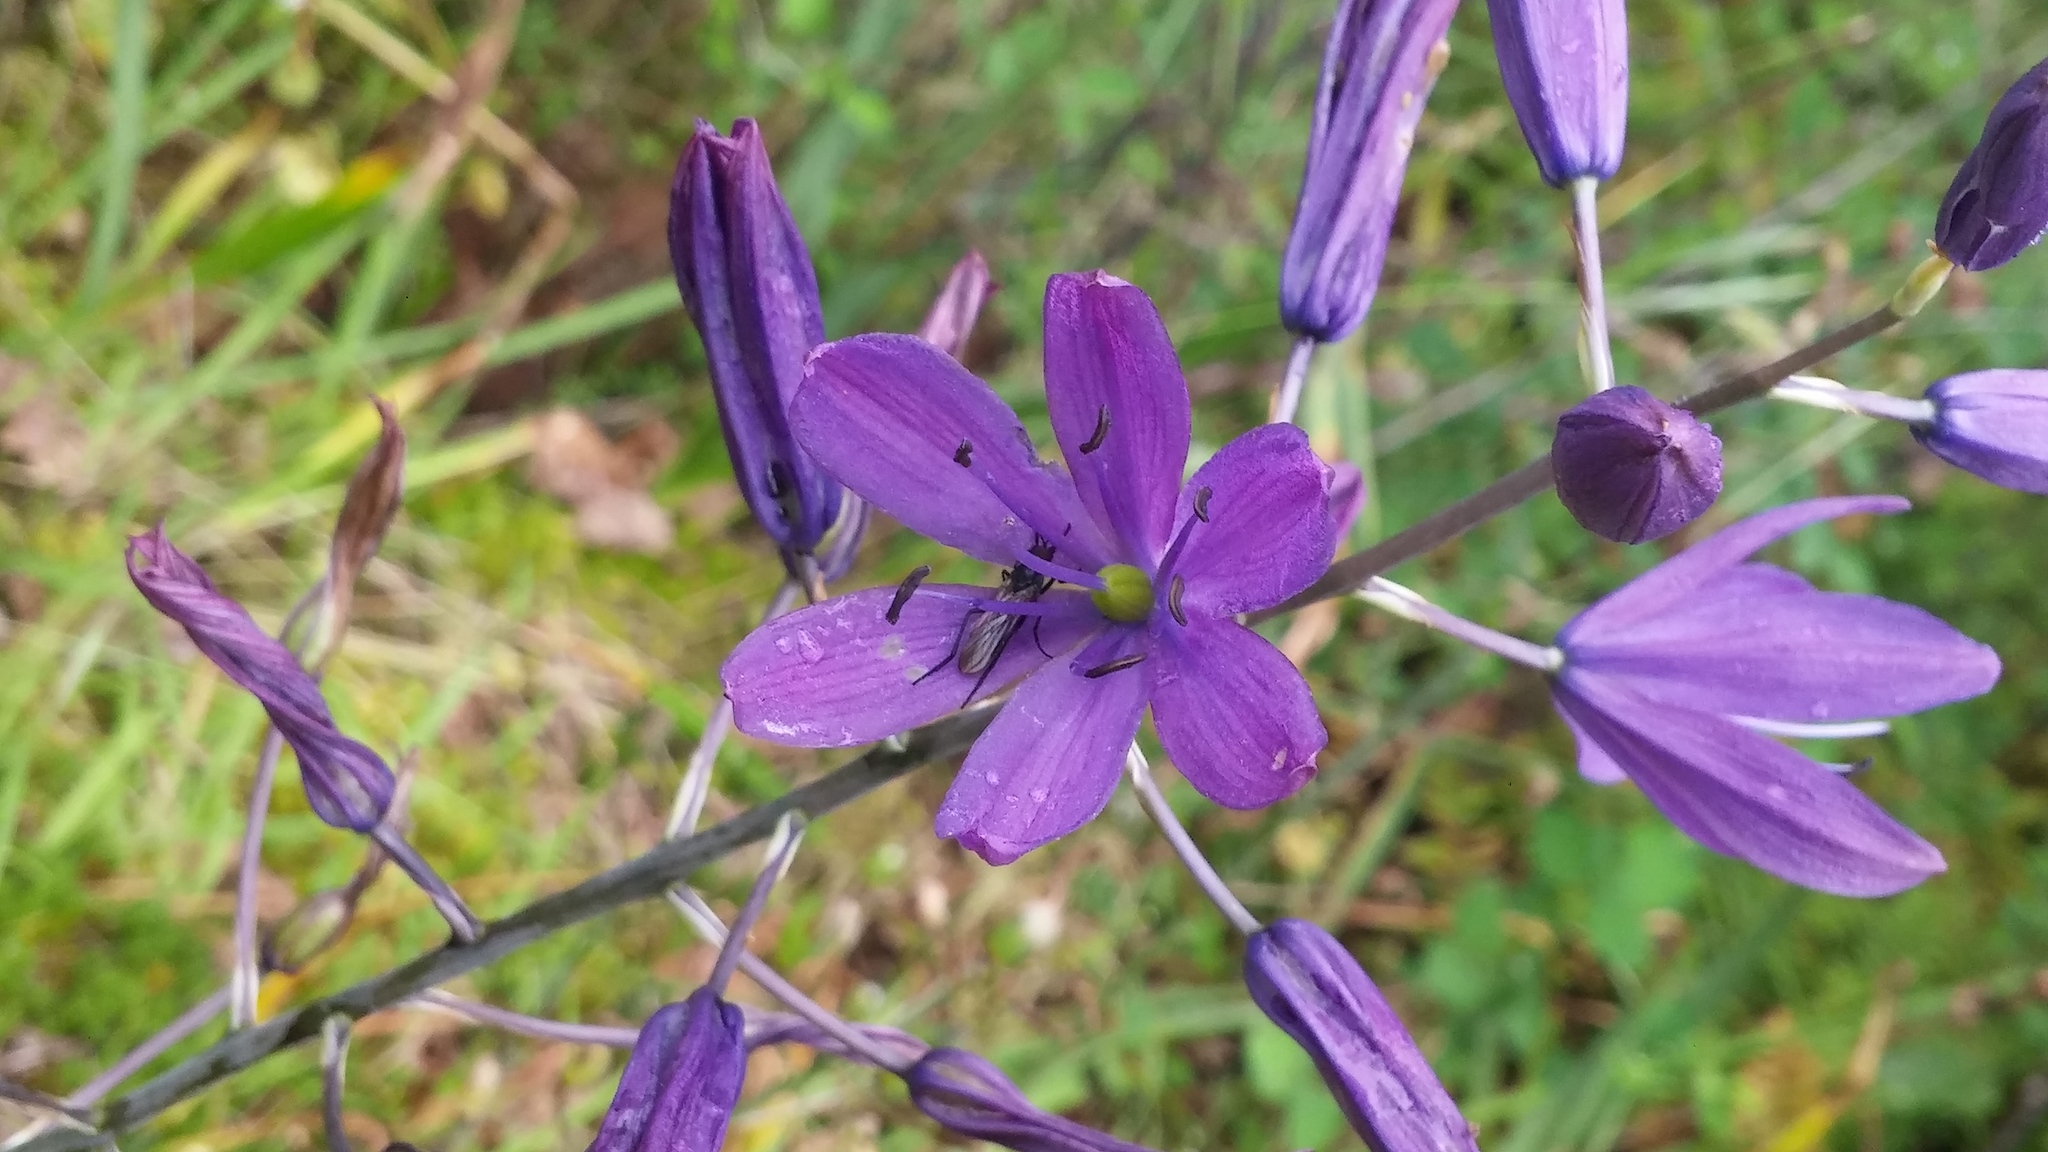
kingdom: Plantae
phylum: Tracheophyta
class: Liliopsida
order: Asparagales
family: Asparagaceae
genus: Camassia
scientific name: Camassia leichtlinii
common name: Leichtlin's camas
